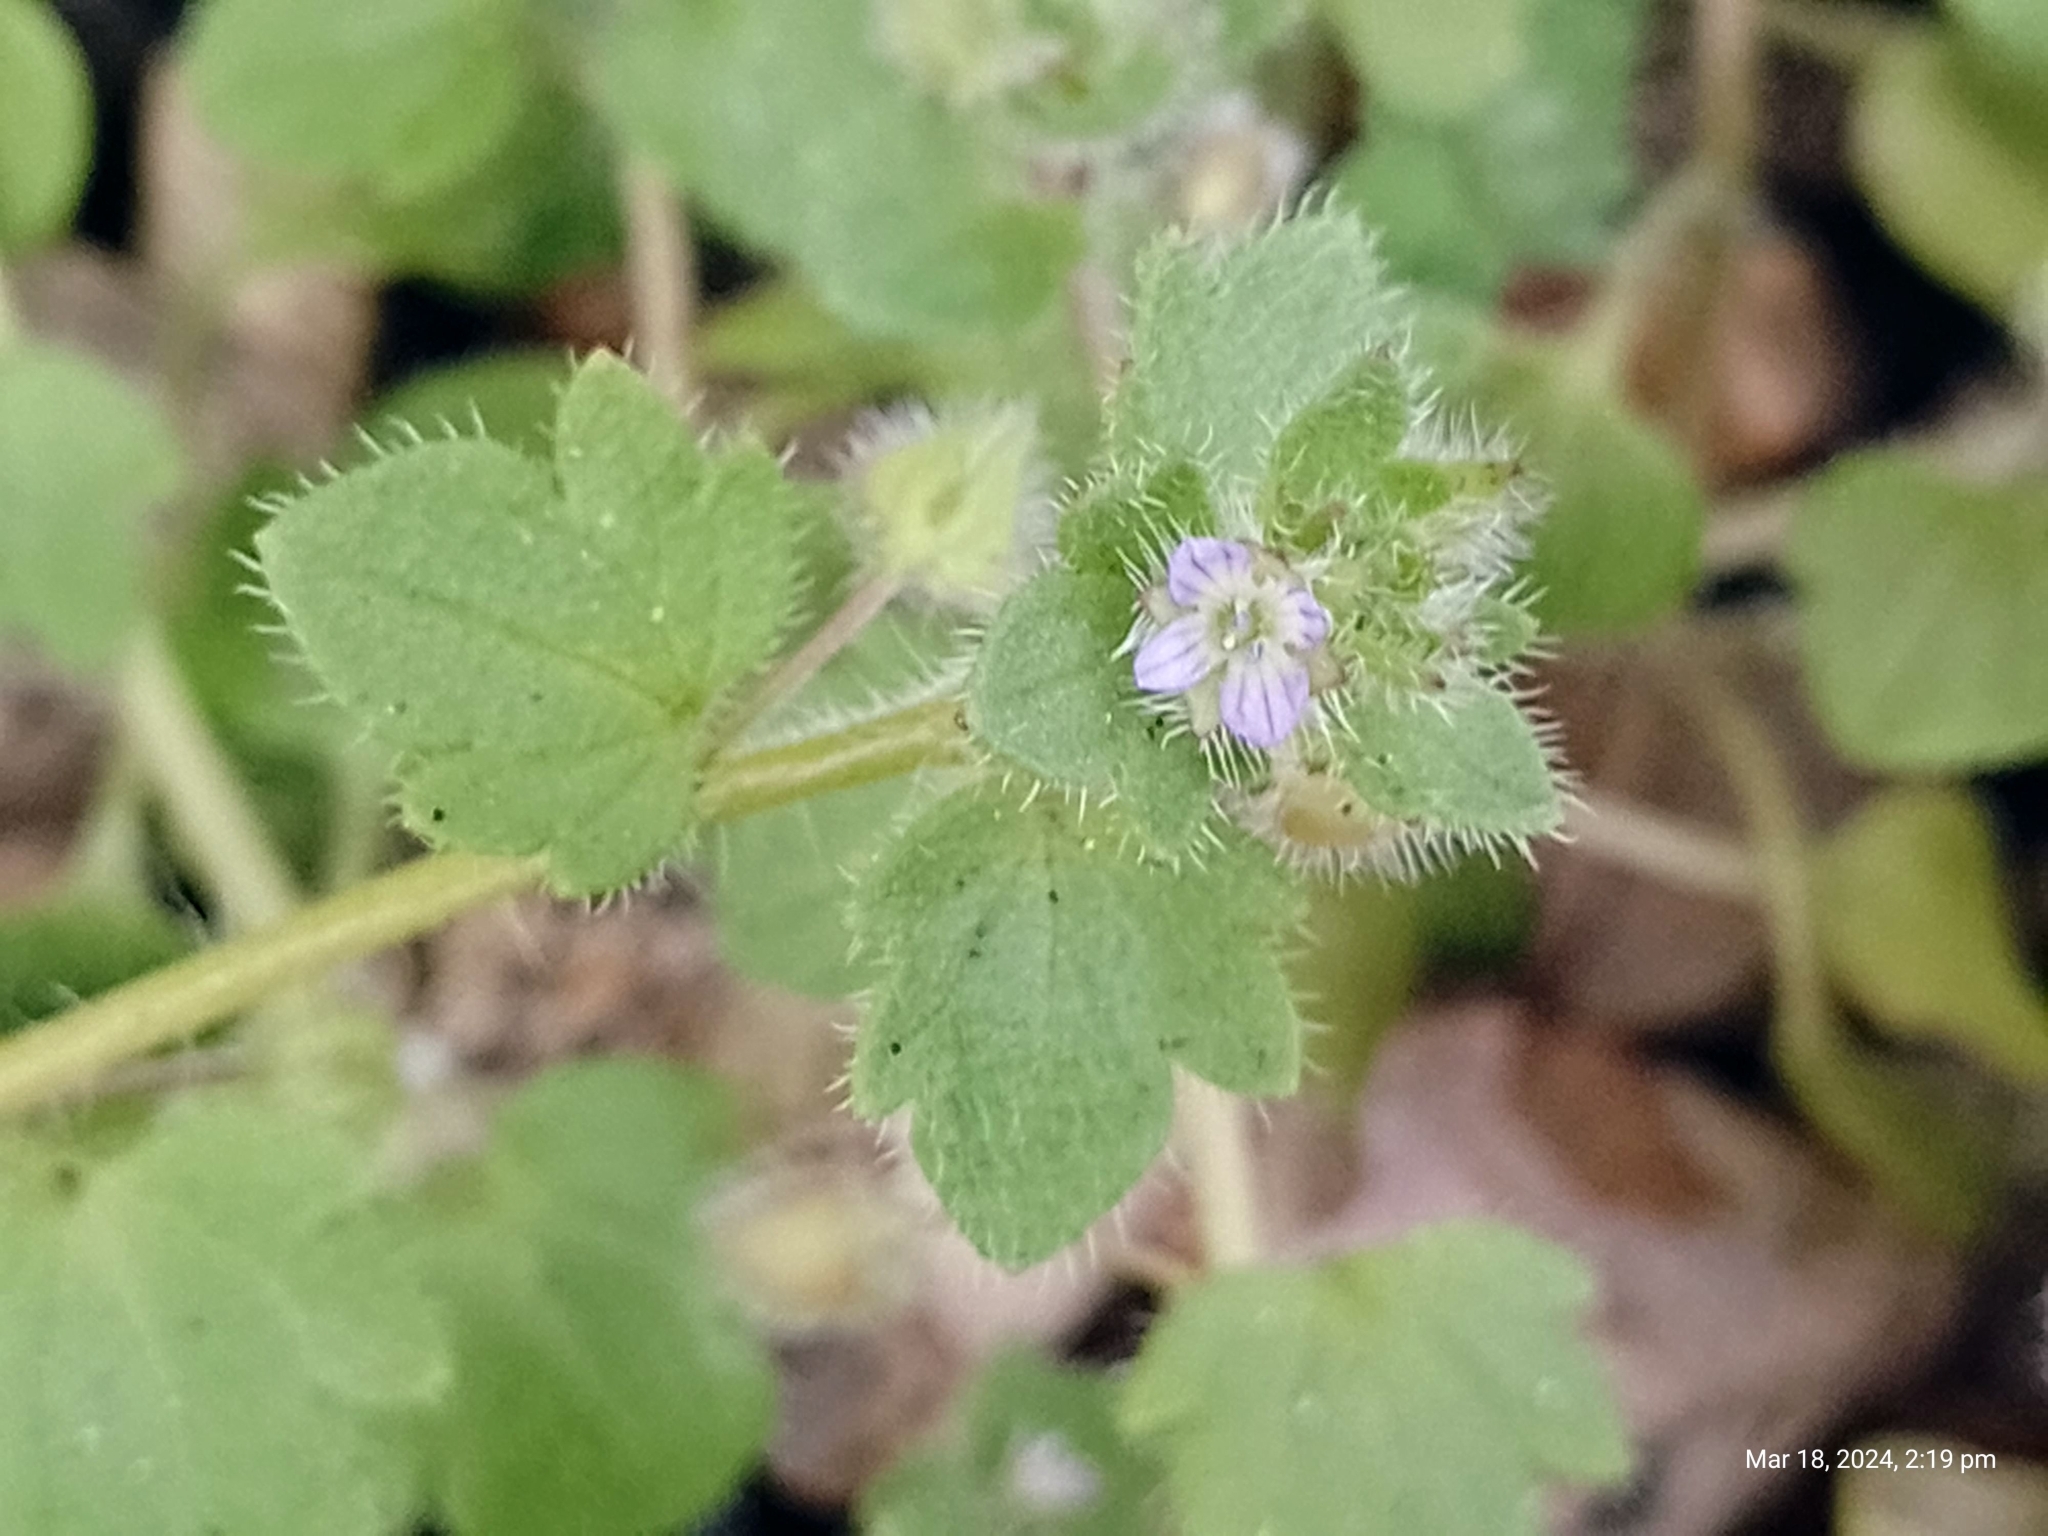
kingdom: Plantae
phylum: Tracheophyta
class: Magnoliopsida
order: Lamiales
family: Plantaginaceae
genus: Veronica
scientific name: Veronica sublobata
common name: False ivy-leaved speedwell
